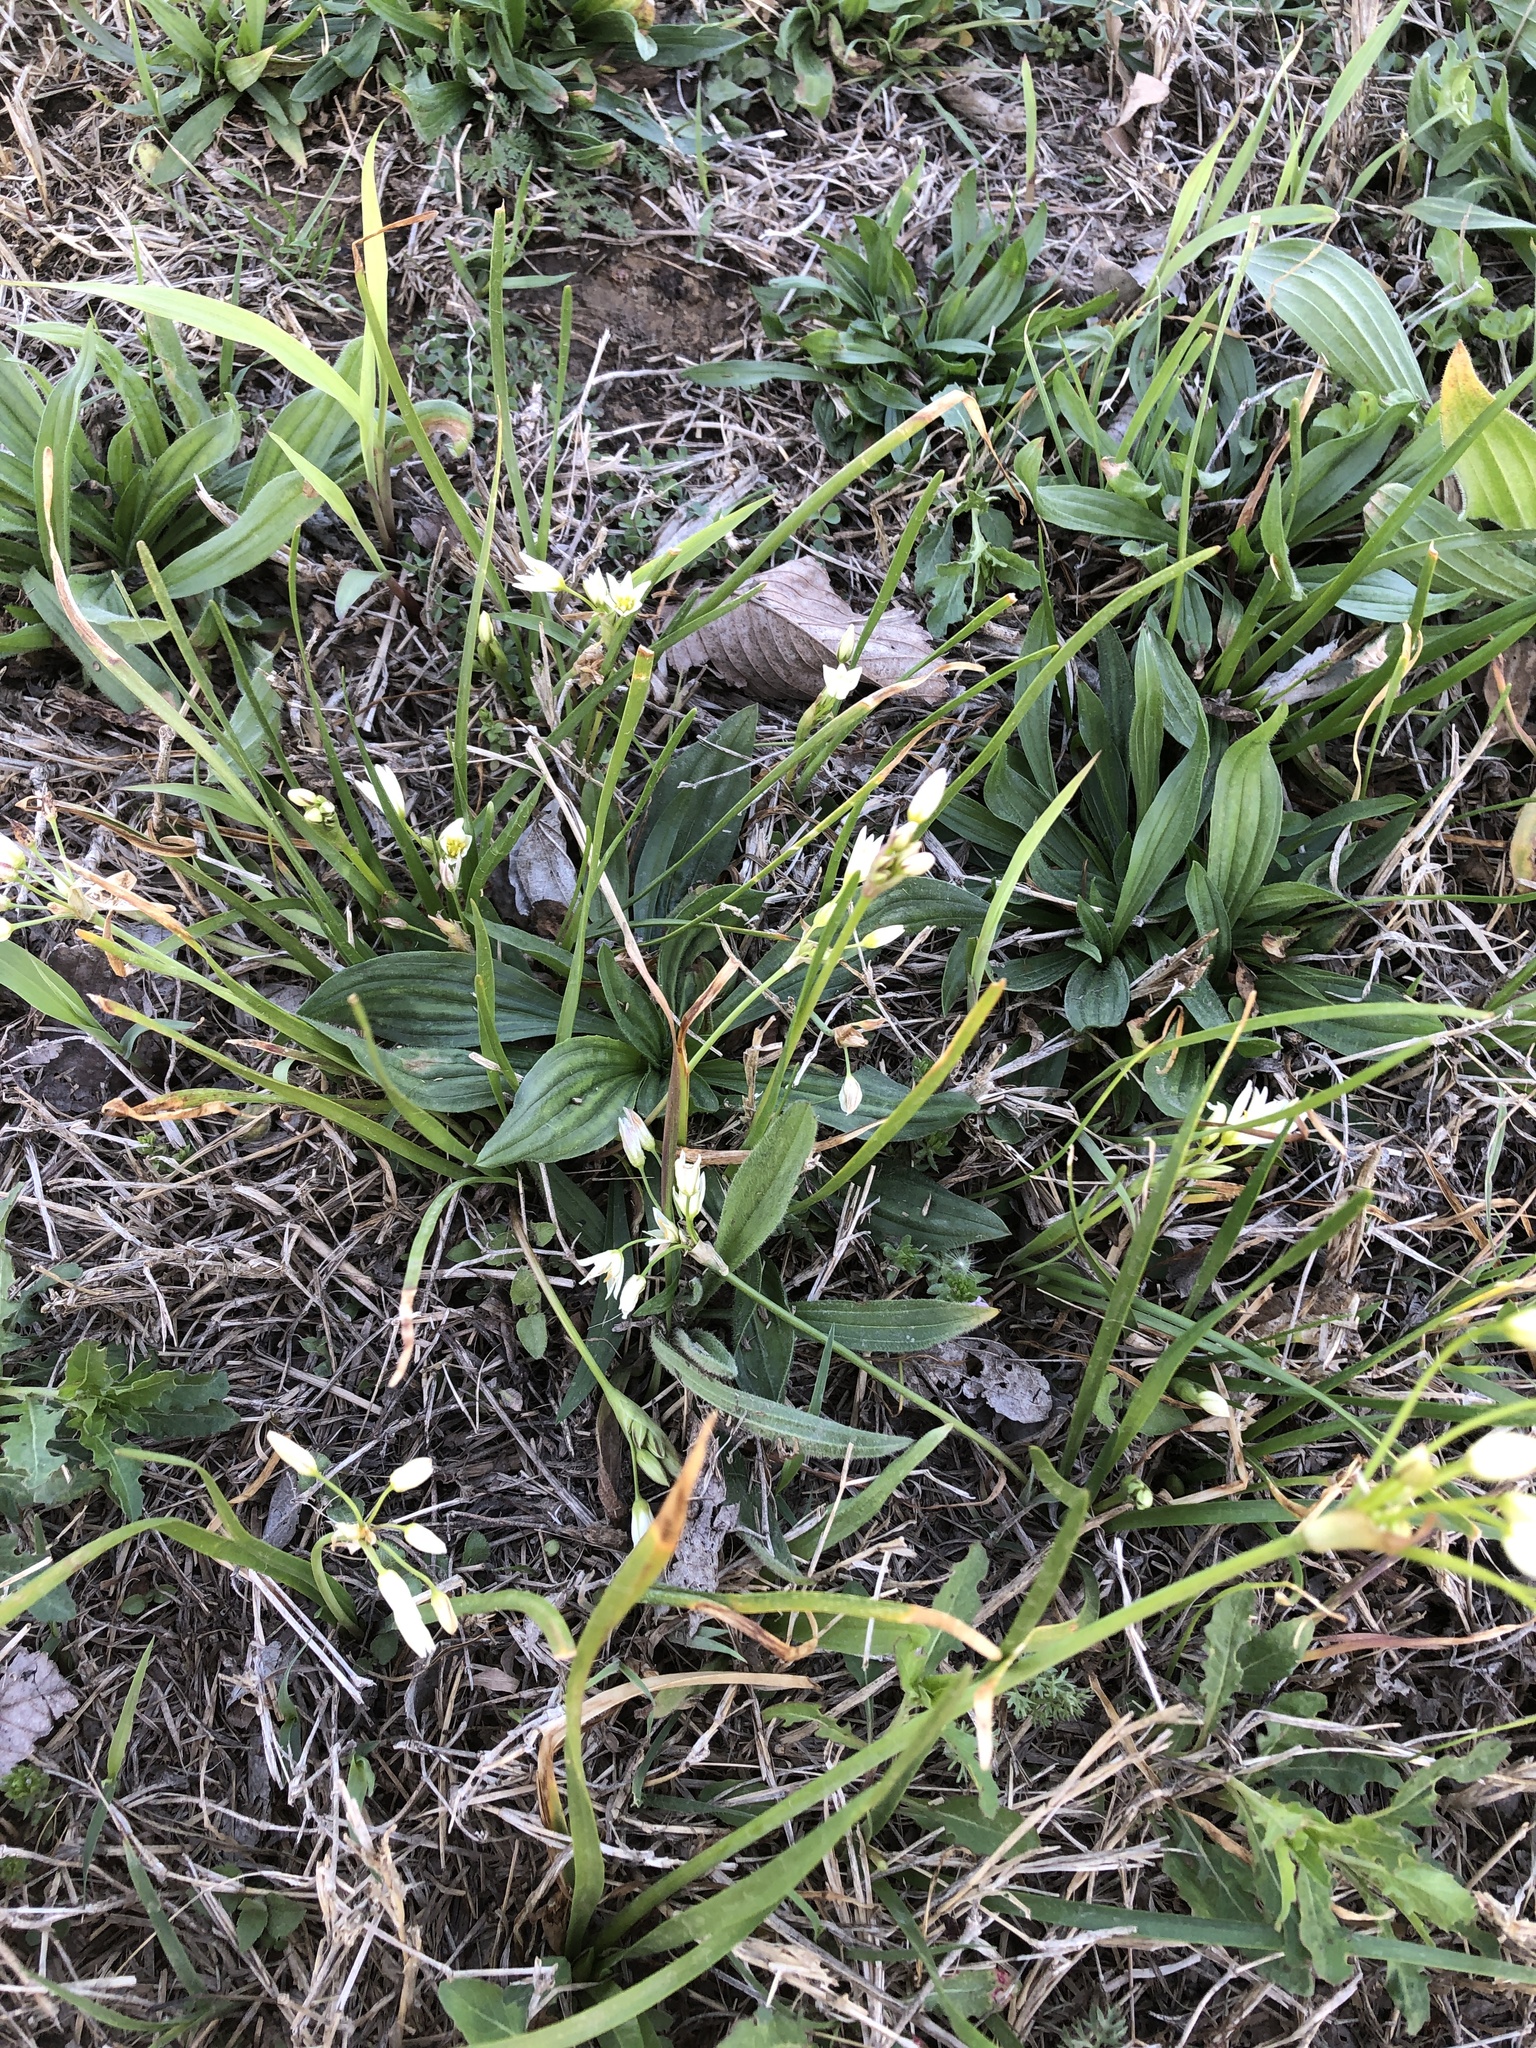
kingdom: Plantae
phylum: Tracheophyta
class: Liliopsida
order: Asparagales
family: Amaryllidaceae
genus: Nothoscordum
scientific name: Nothoscordum bivalve
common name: Crow-poison
